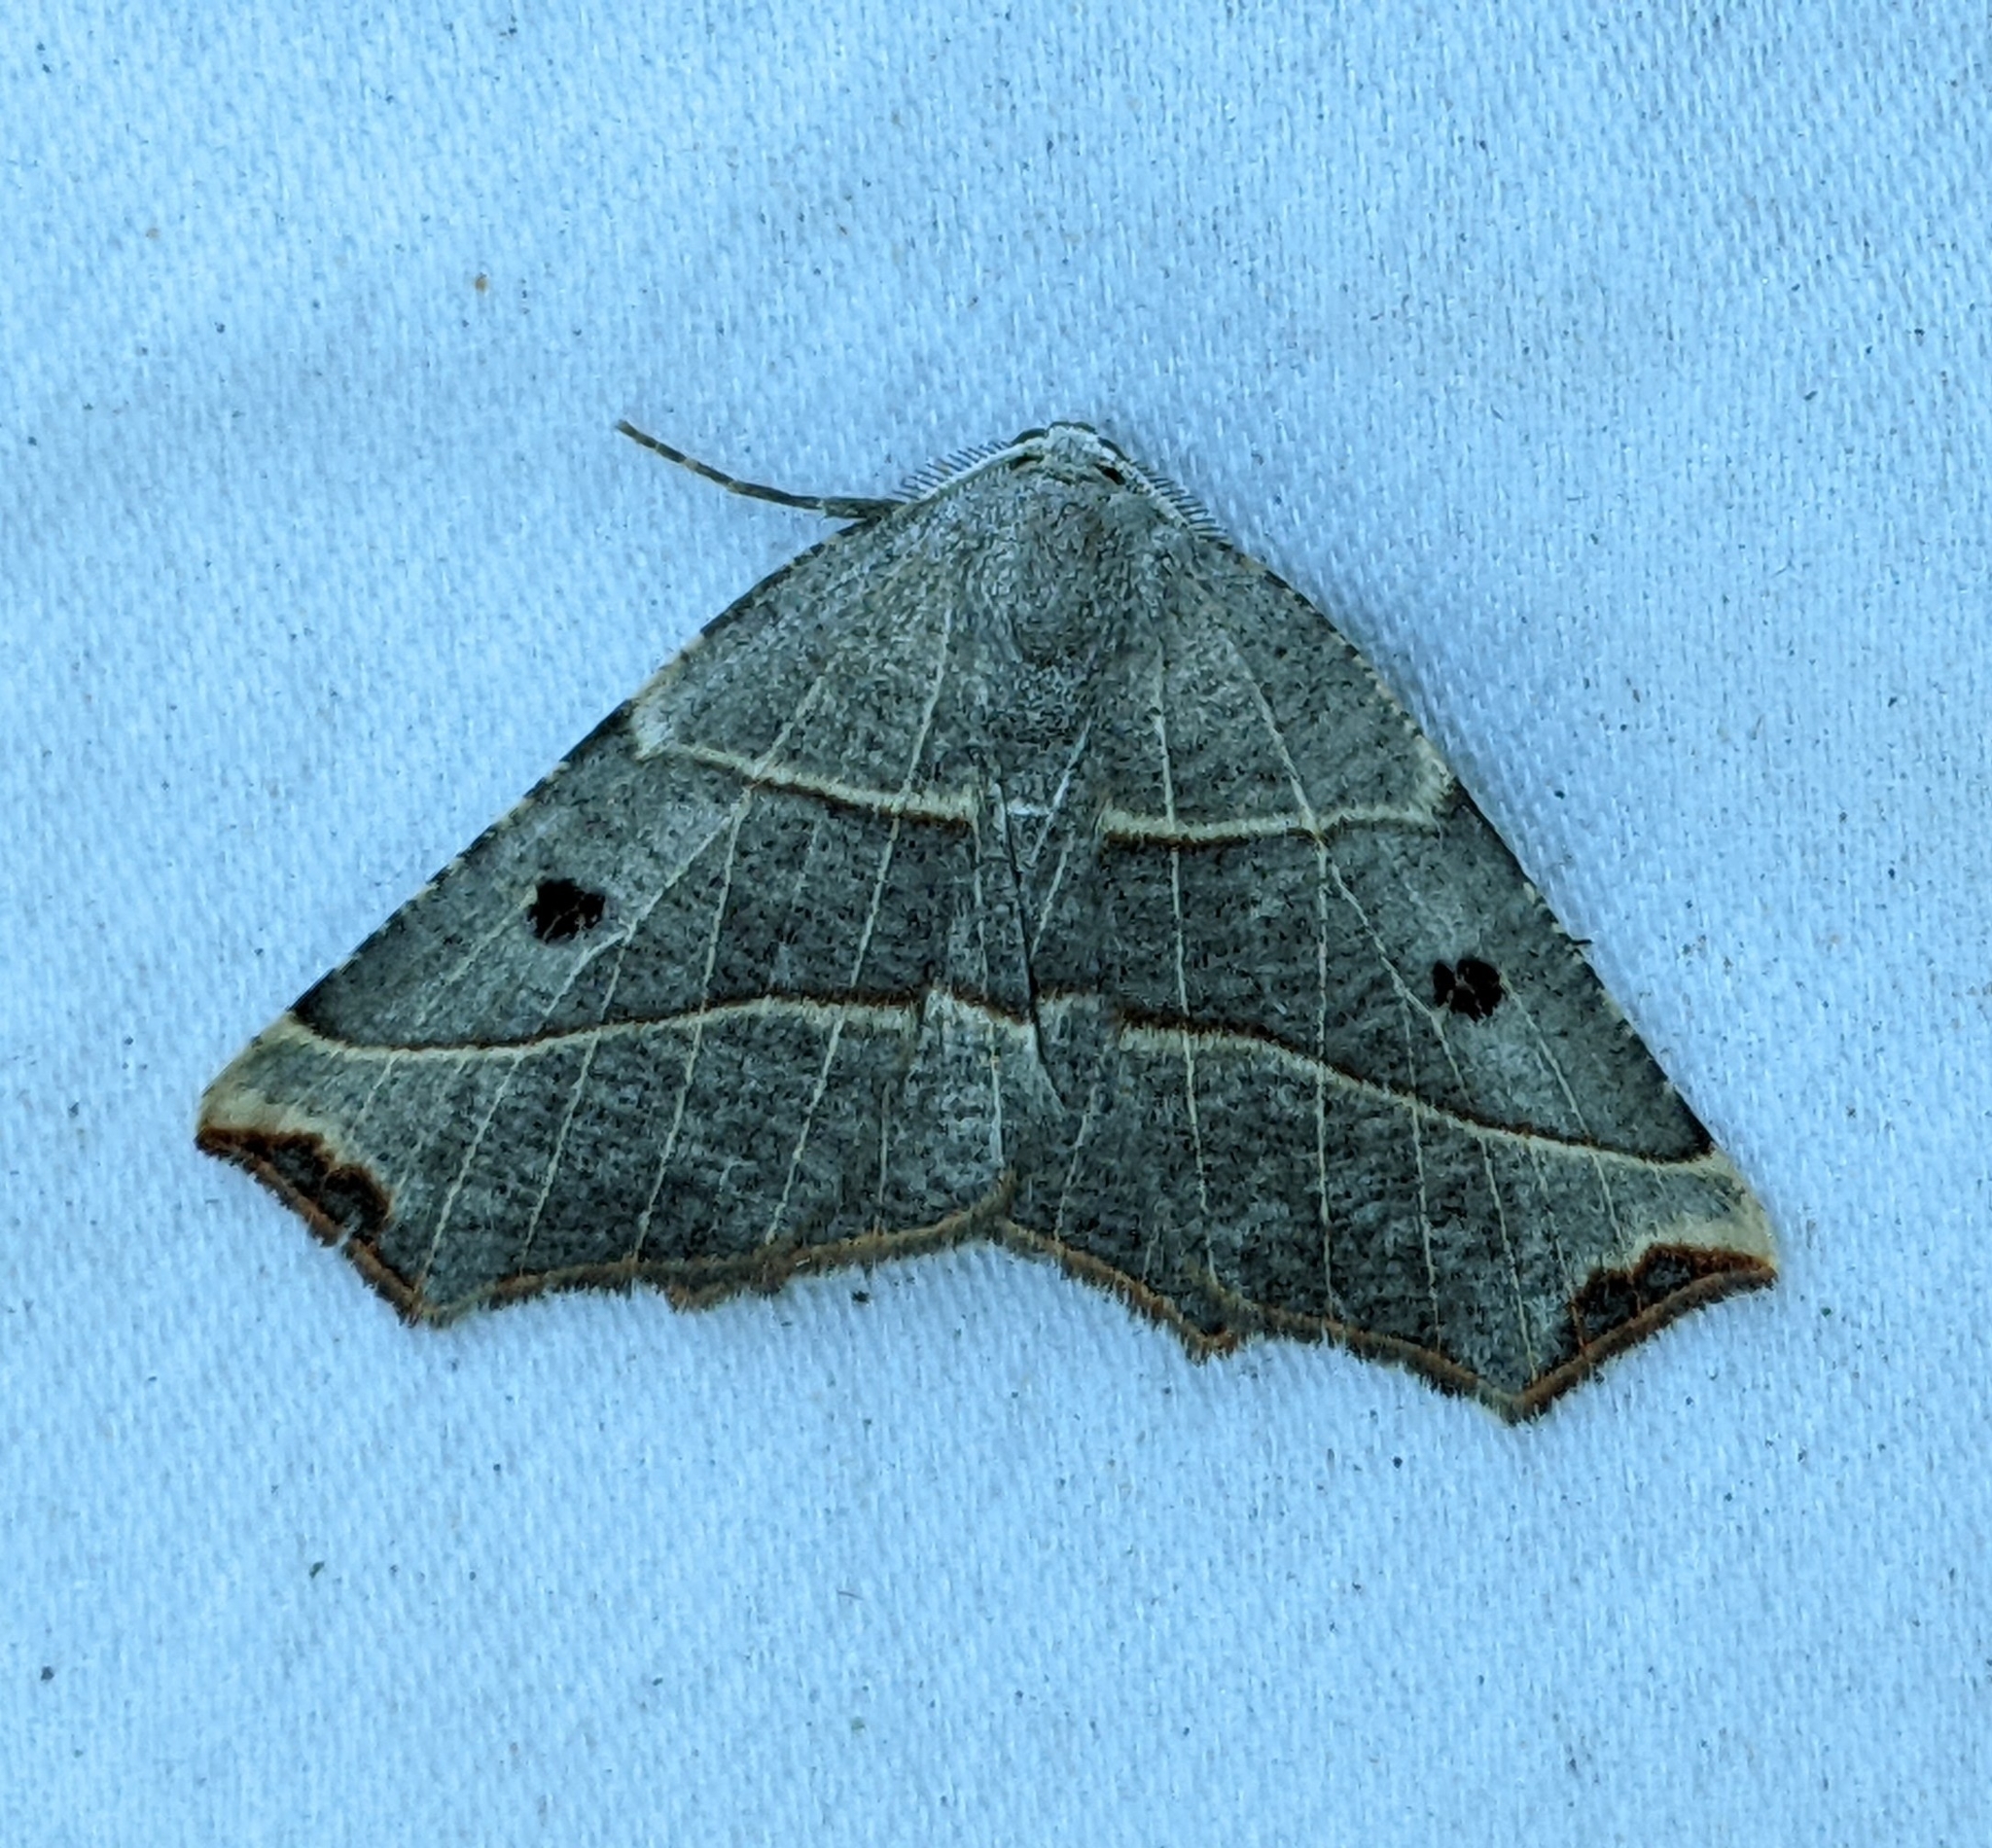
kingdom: Animalia
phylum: Arthropoda
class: Insecta
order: Lepidoptera
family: Geometridae
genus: Metanema
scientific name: Metanema inatomaria
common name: Pale metanema
